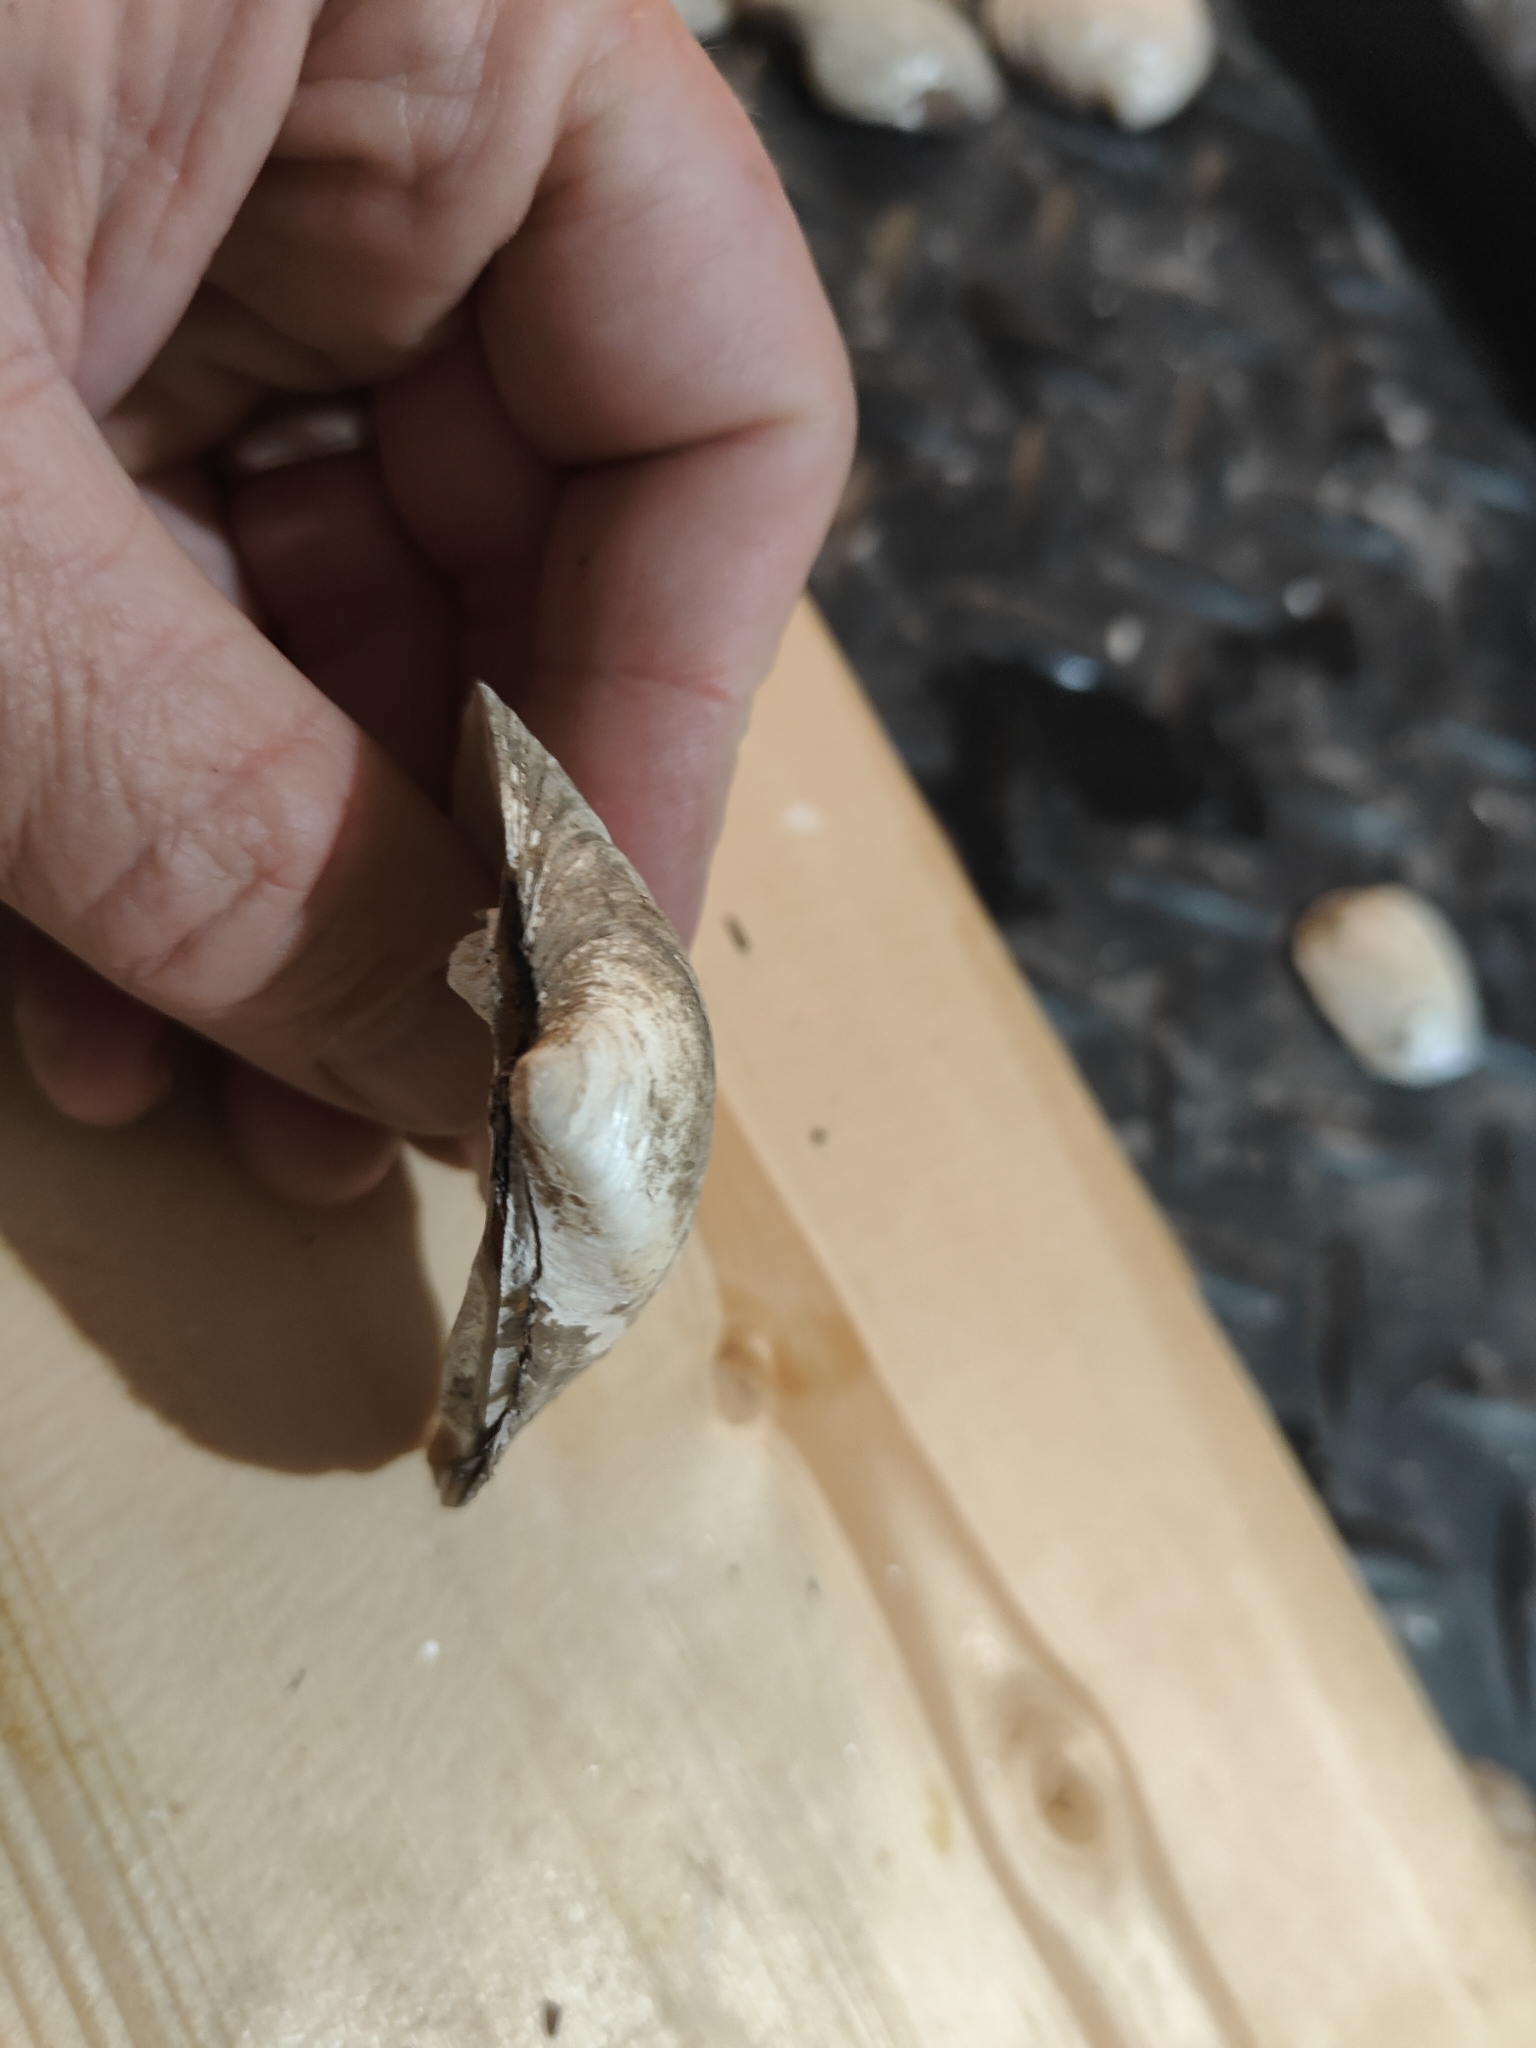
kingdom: Animalia
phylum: Mollusca
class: Bivalvia
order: Unionida
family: Unionidae
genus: Fusconaia
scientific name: Fusconaia flava
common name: Wabash pigtoe
